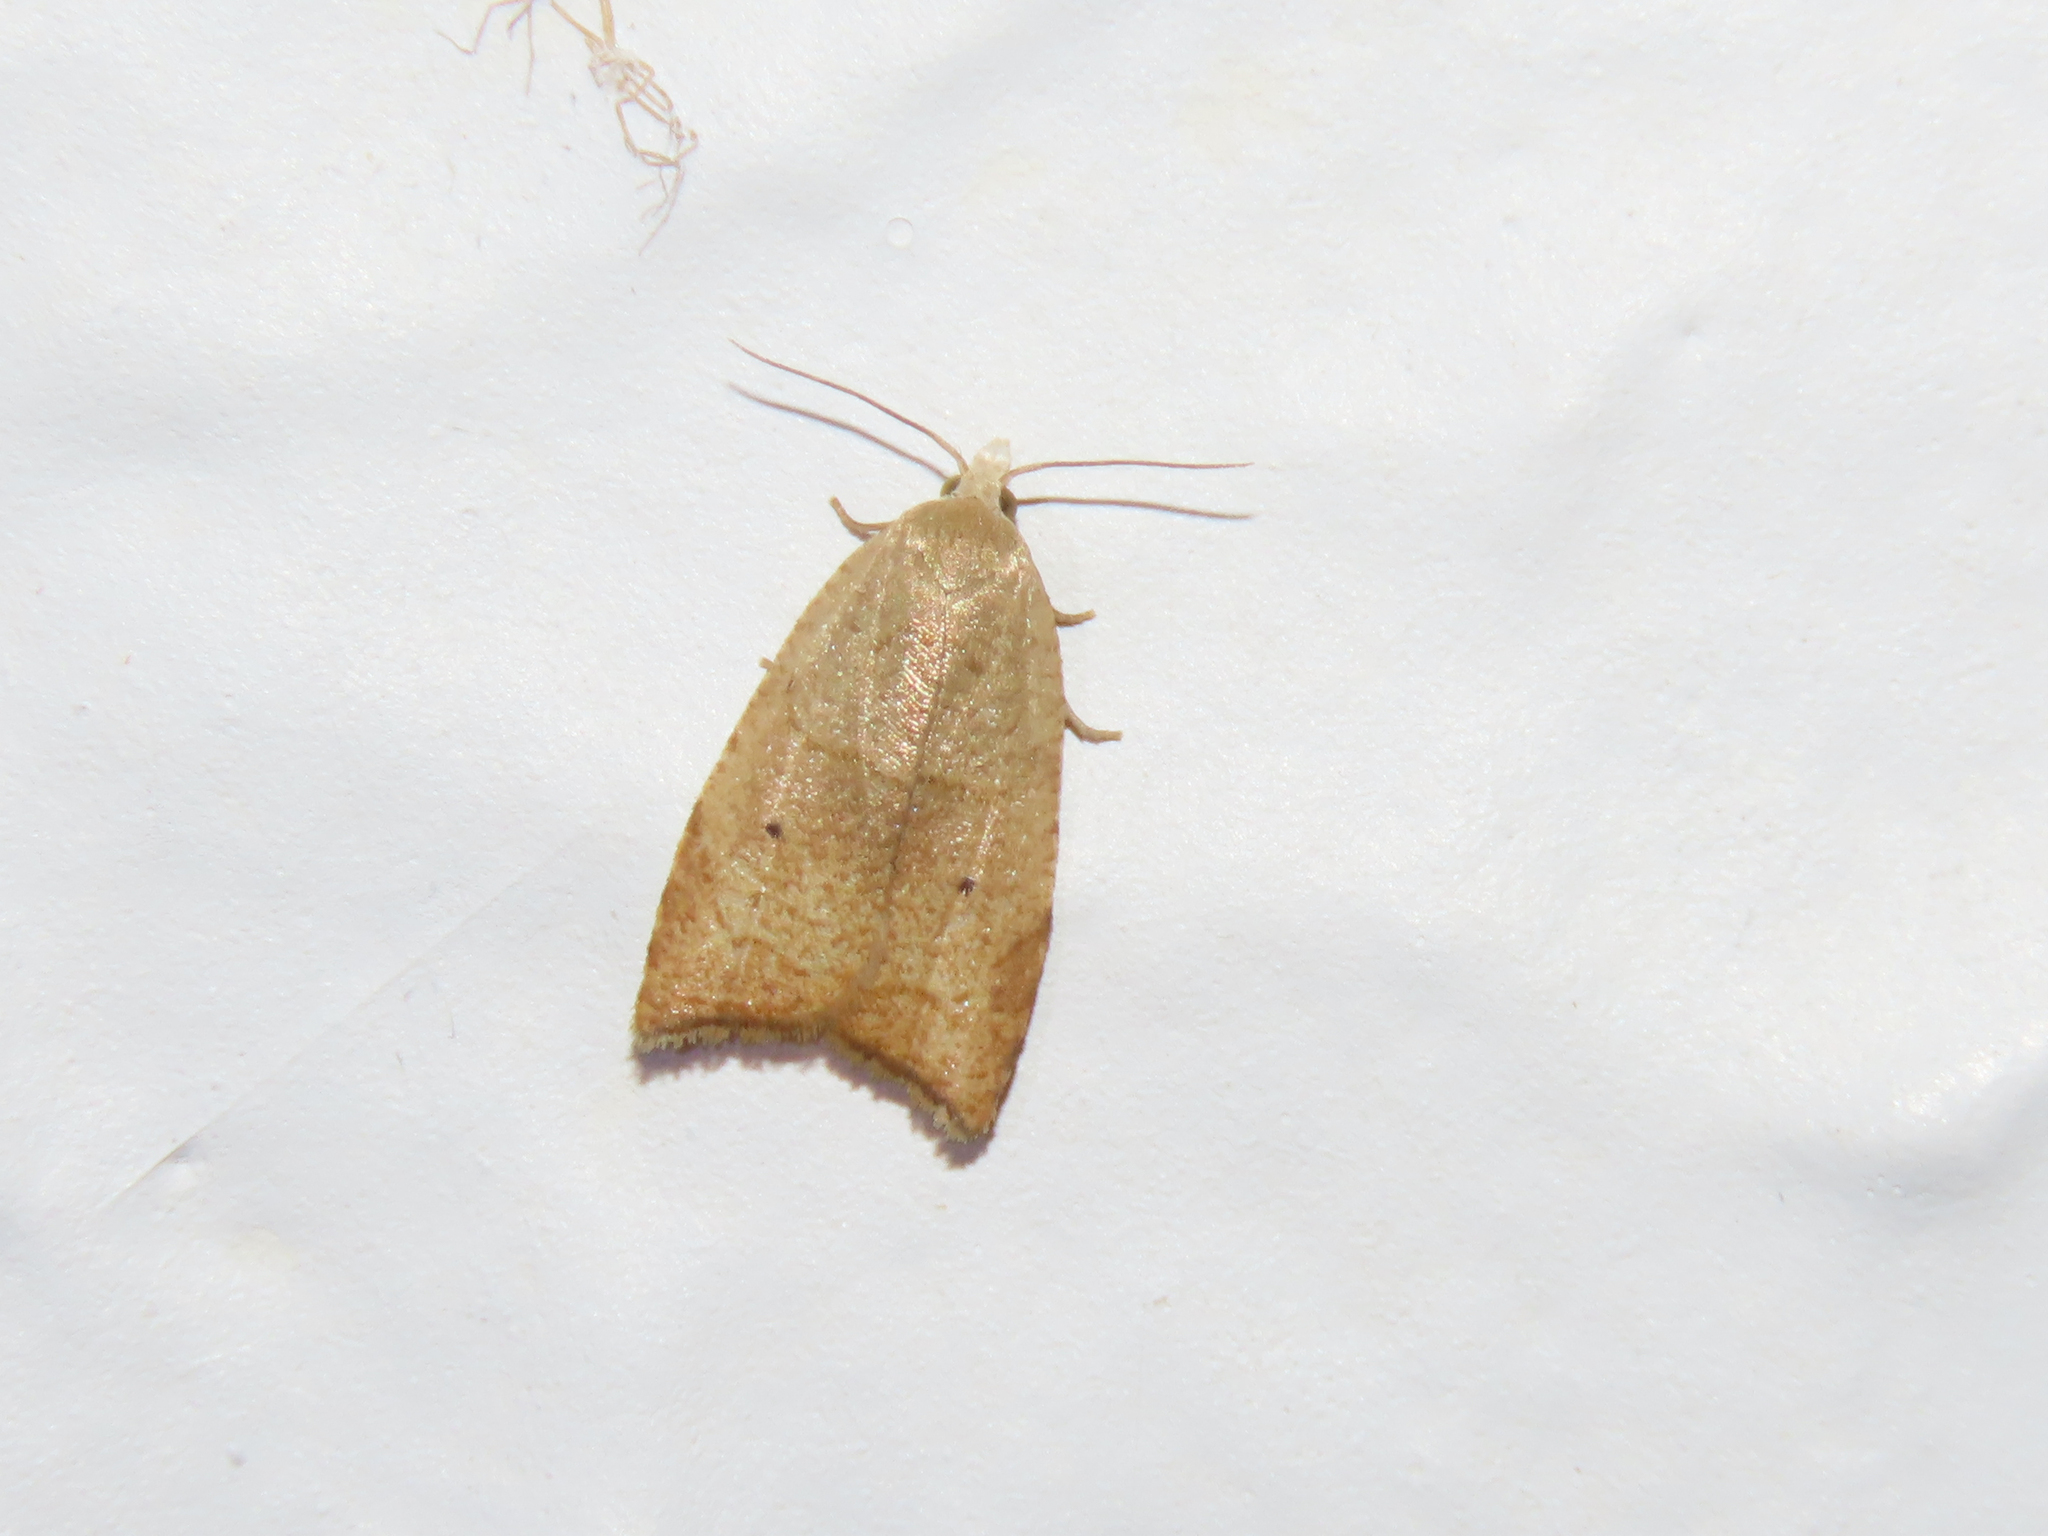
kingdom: Animalia
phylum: Arthropoda
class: Insecta
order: Lepidoptera
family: Tortricidae
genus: Coelostathma
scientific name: Coelostathma discopunctana
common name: Batman moth
